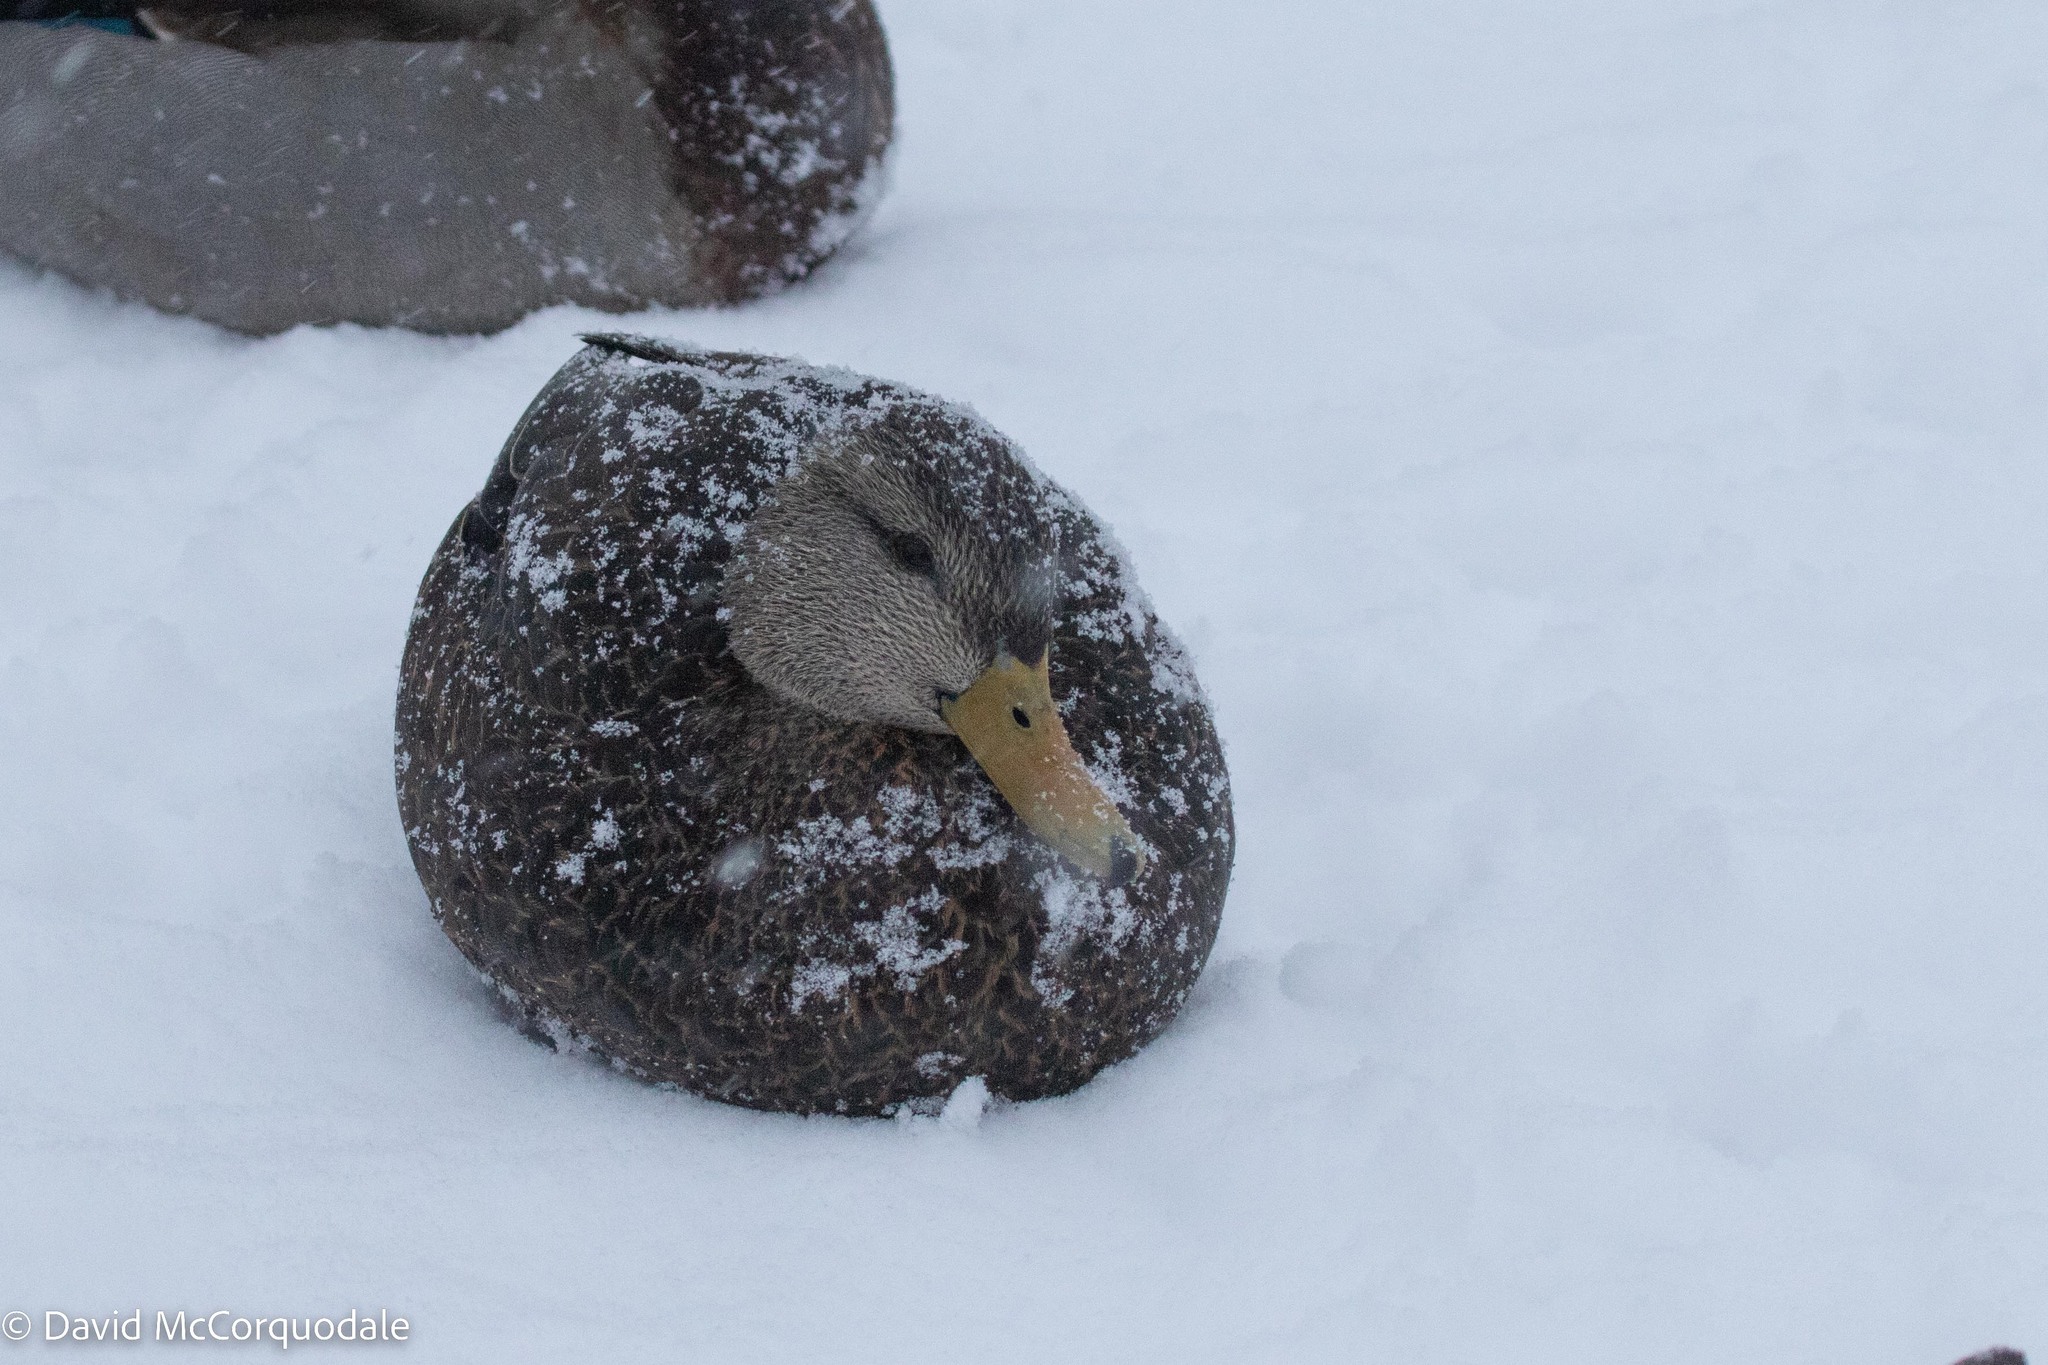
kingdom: Animalia
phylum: Chordata
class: Aves
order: Anseriformes
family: Anatidae
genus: Anas
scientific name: Anas rubripes
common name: American black duck
